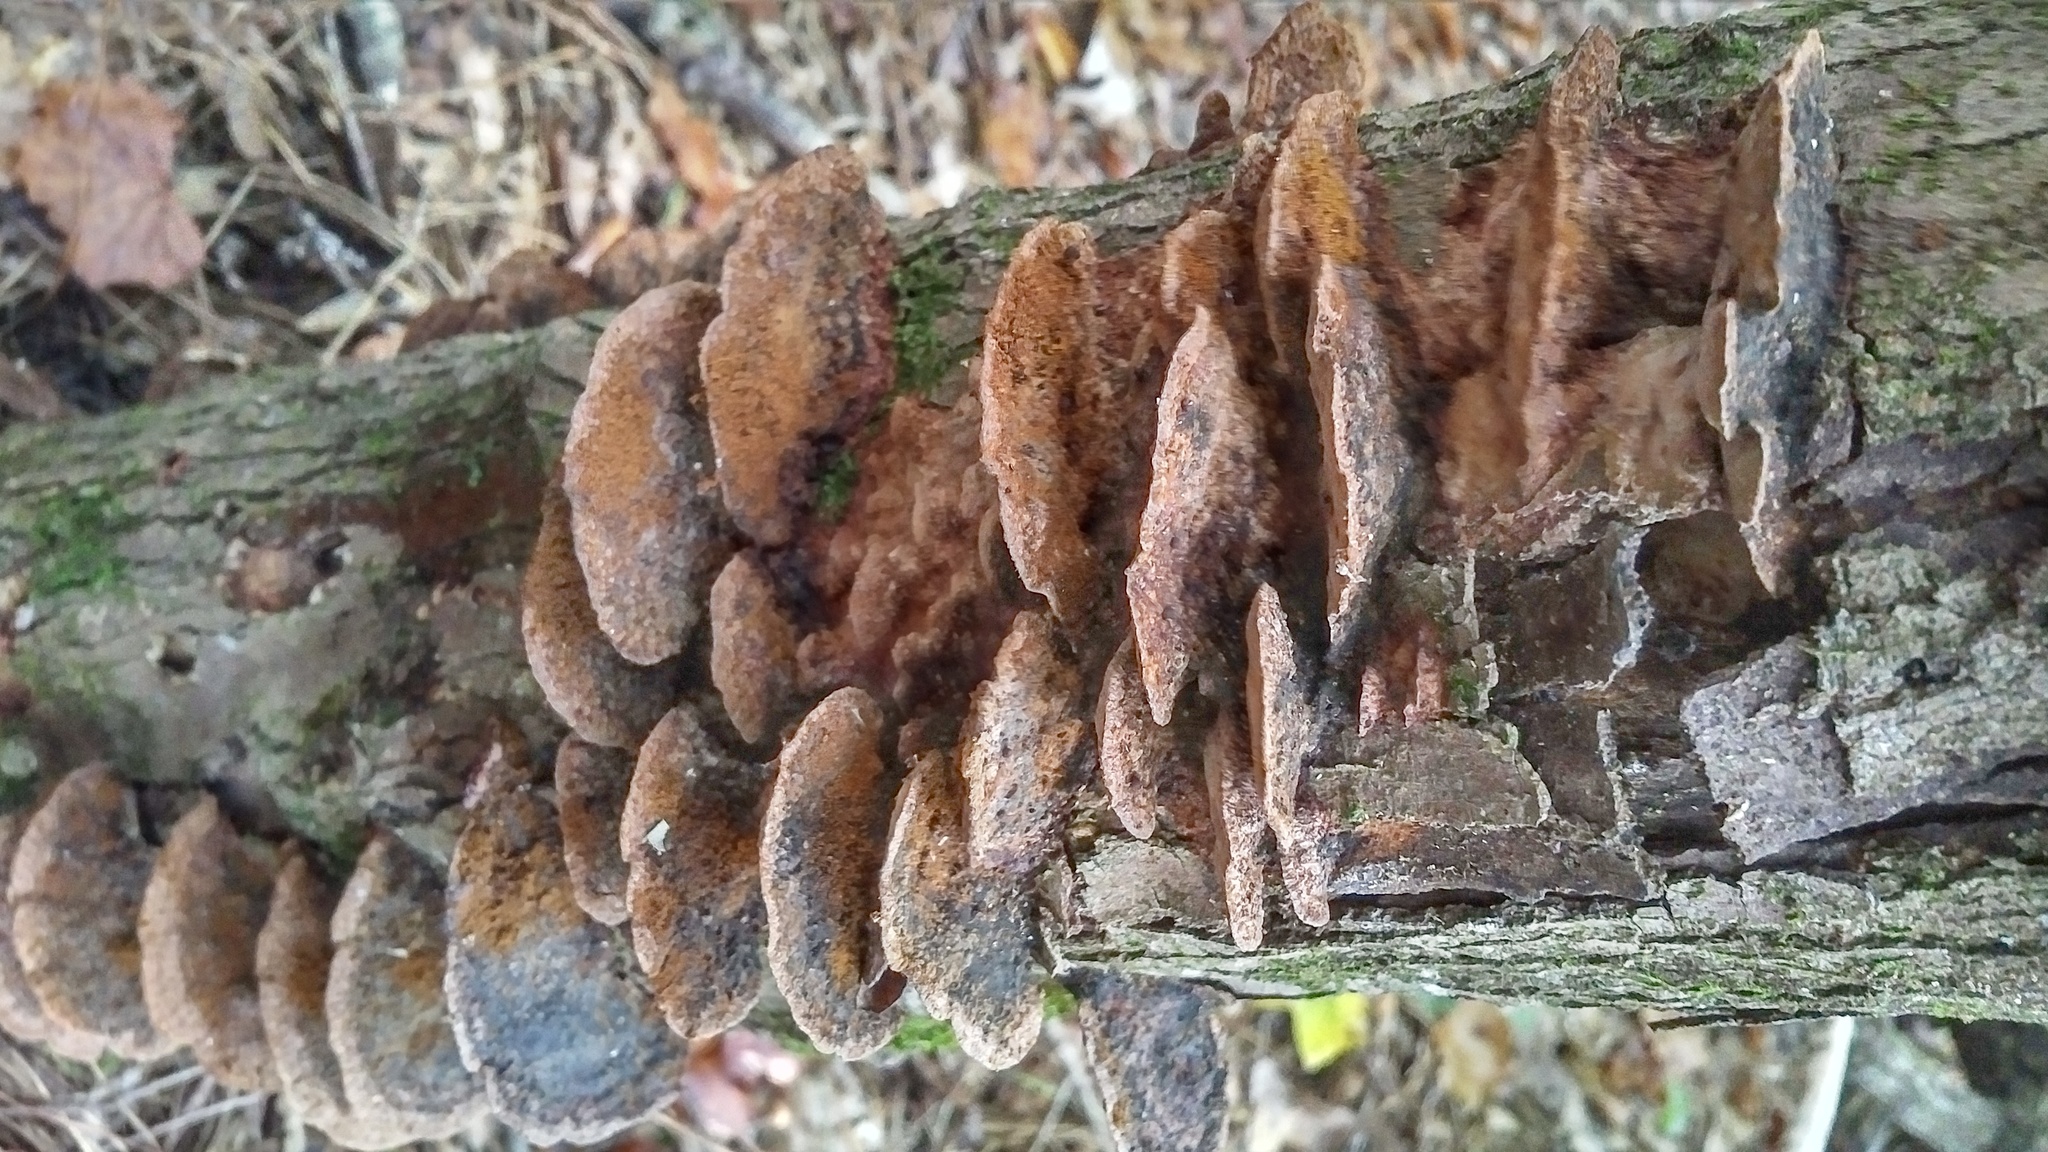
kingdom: Fungi
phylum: Basidiomycota
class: Agaricomycetes
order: Hymenochaetales
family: Hymenochaetaceae
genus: Phellinus
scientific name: Phellinus gilvus
